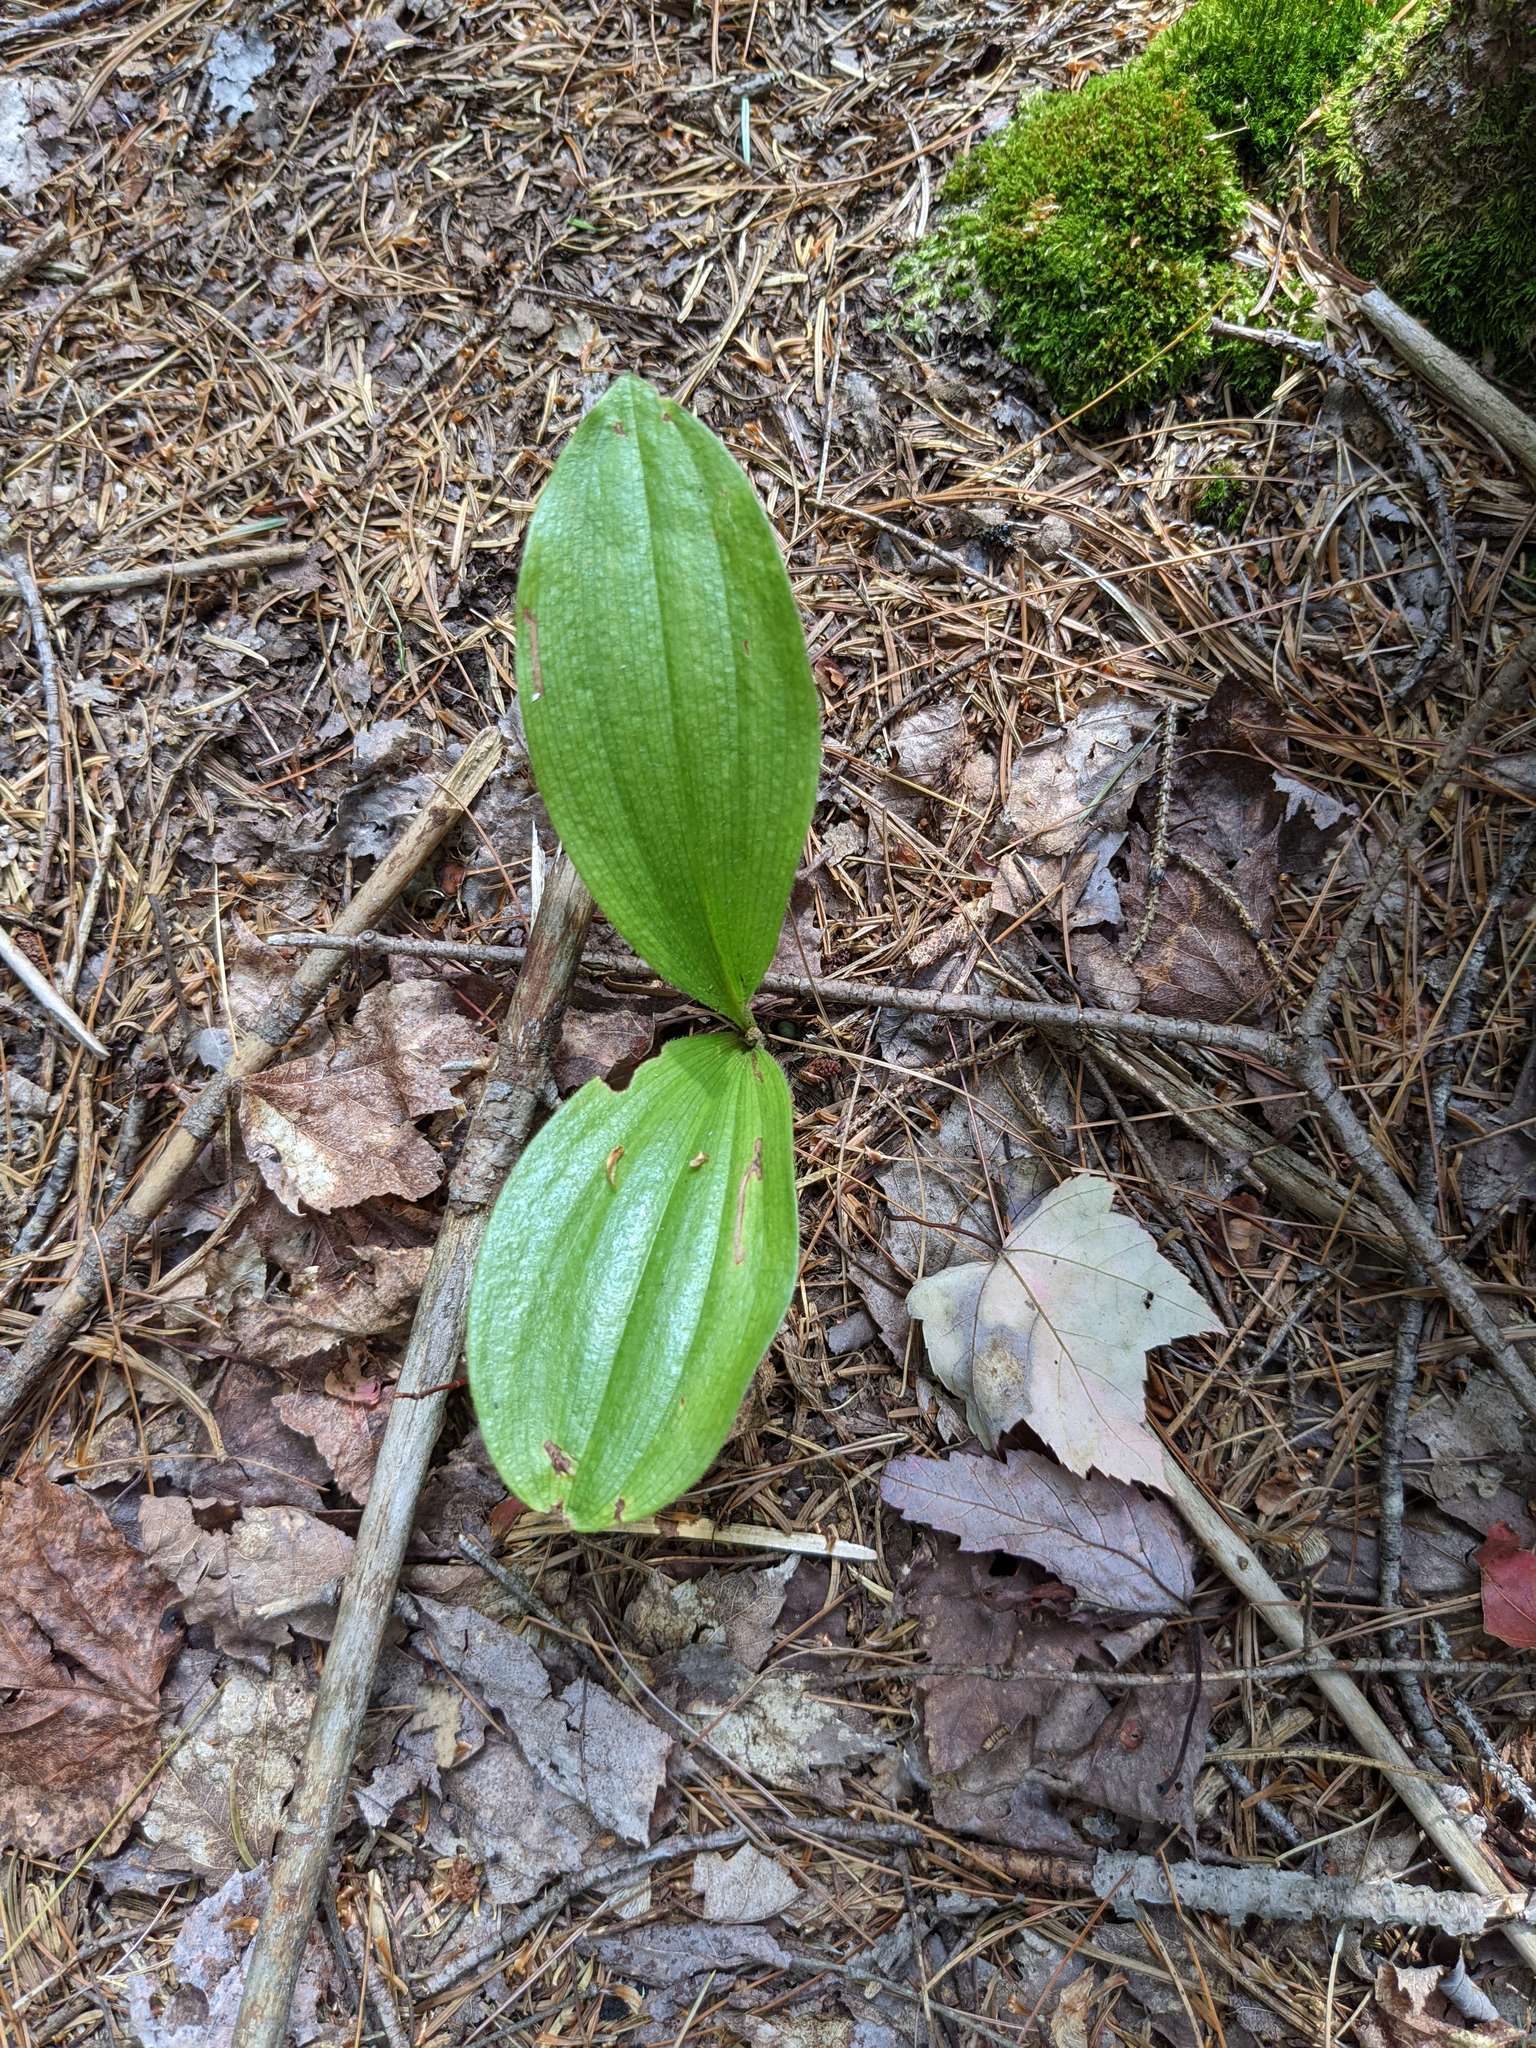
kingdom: Plantae
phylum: Tracheophyta
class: Liliopsida
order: Asparagales
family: Orchidaceae
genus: Cypripedium
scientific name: Cypripedium acaule
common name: Pink lady's-slipper
